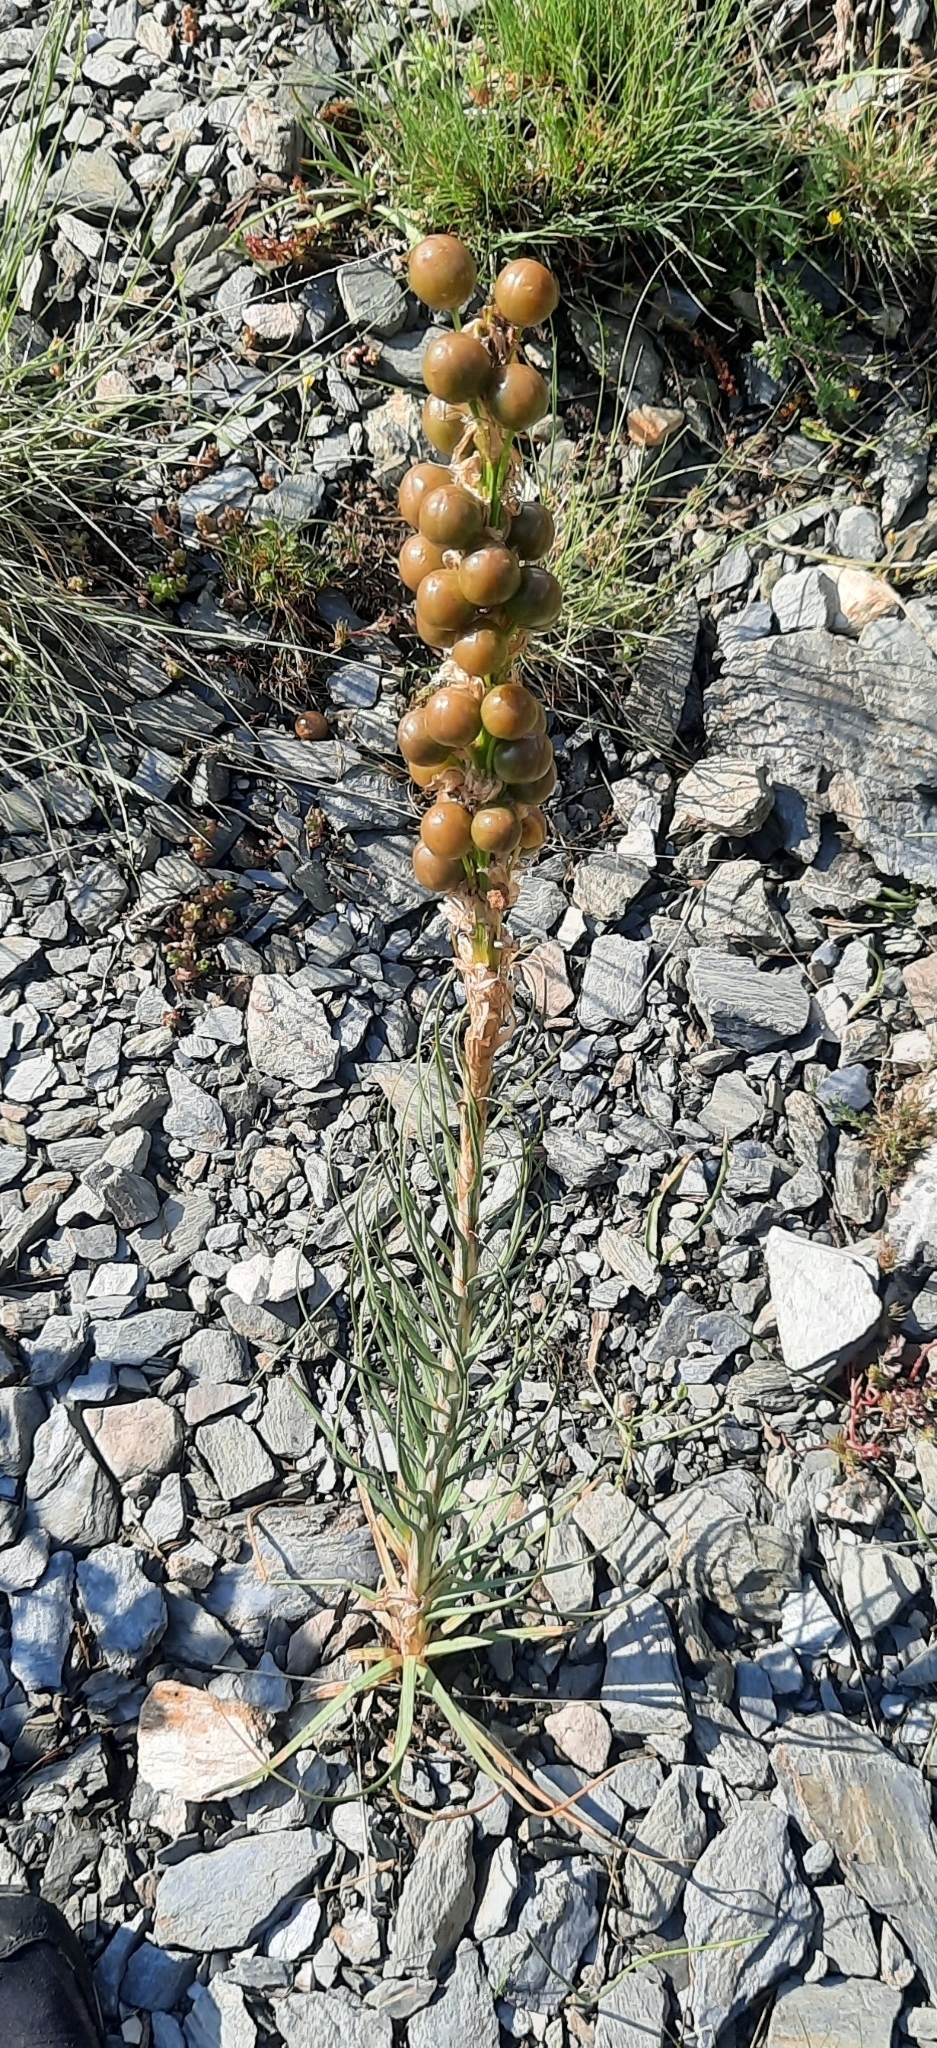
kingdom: Plantae
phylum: Tracheophyta
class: Liliopsida
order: Asparagales
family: Asphodelaceae
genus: Asphodeline
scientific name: Asphodeline lutea
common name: Yellow asphodel
